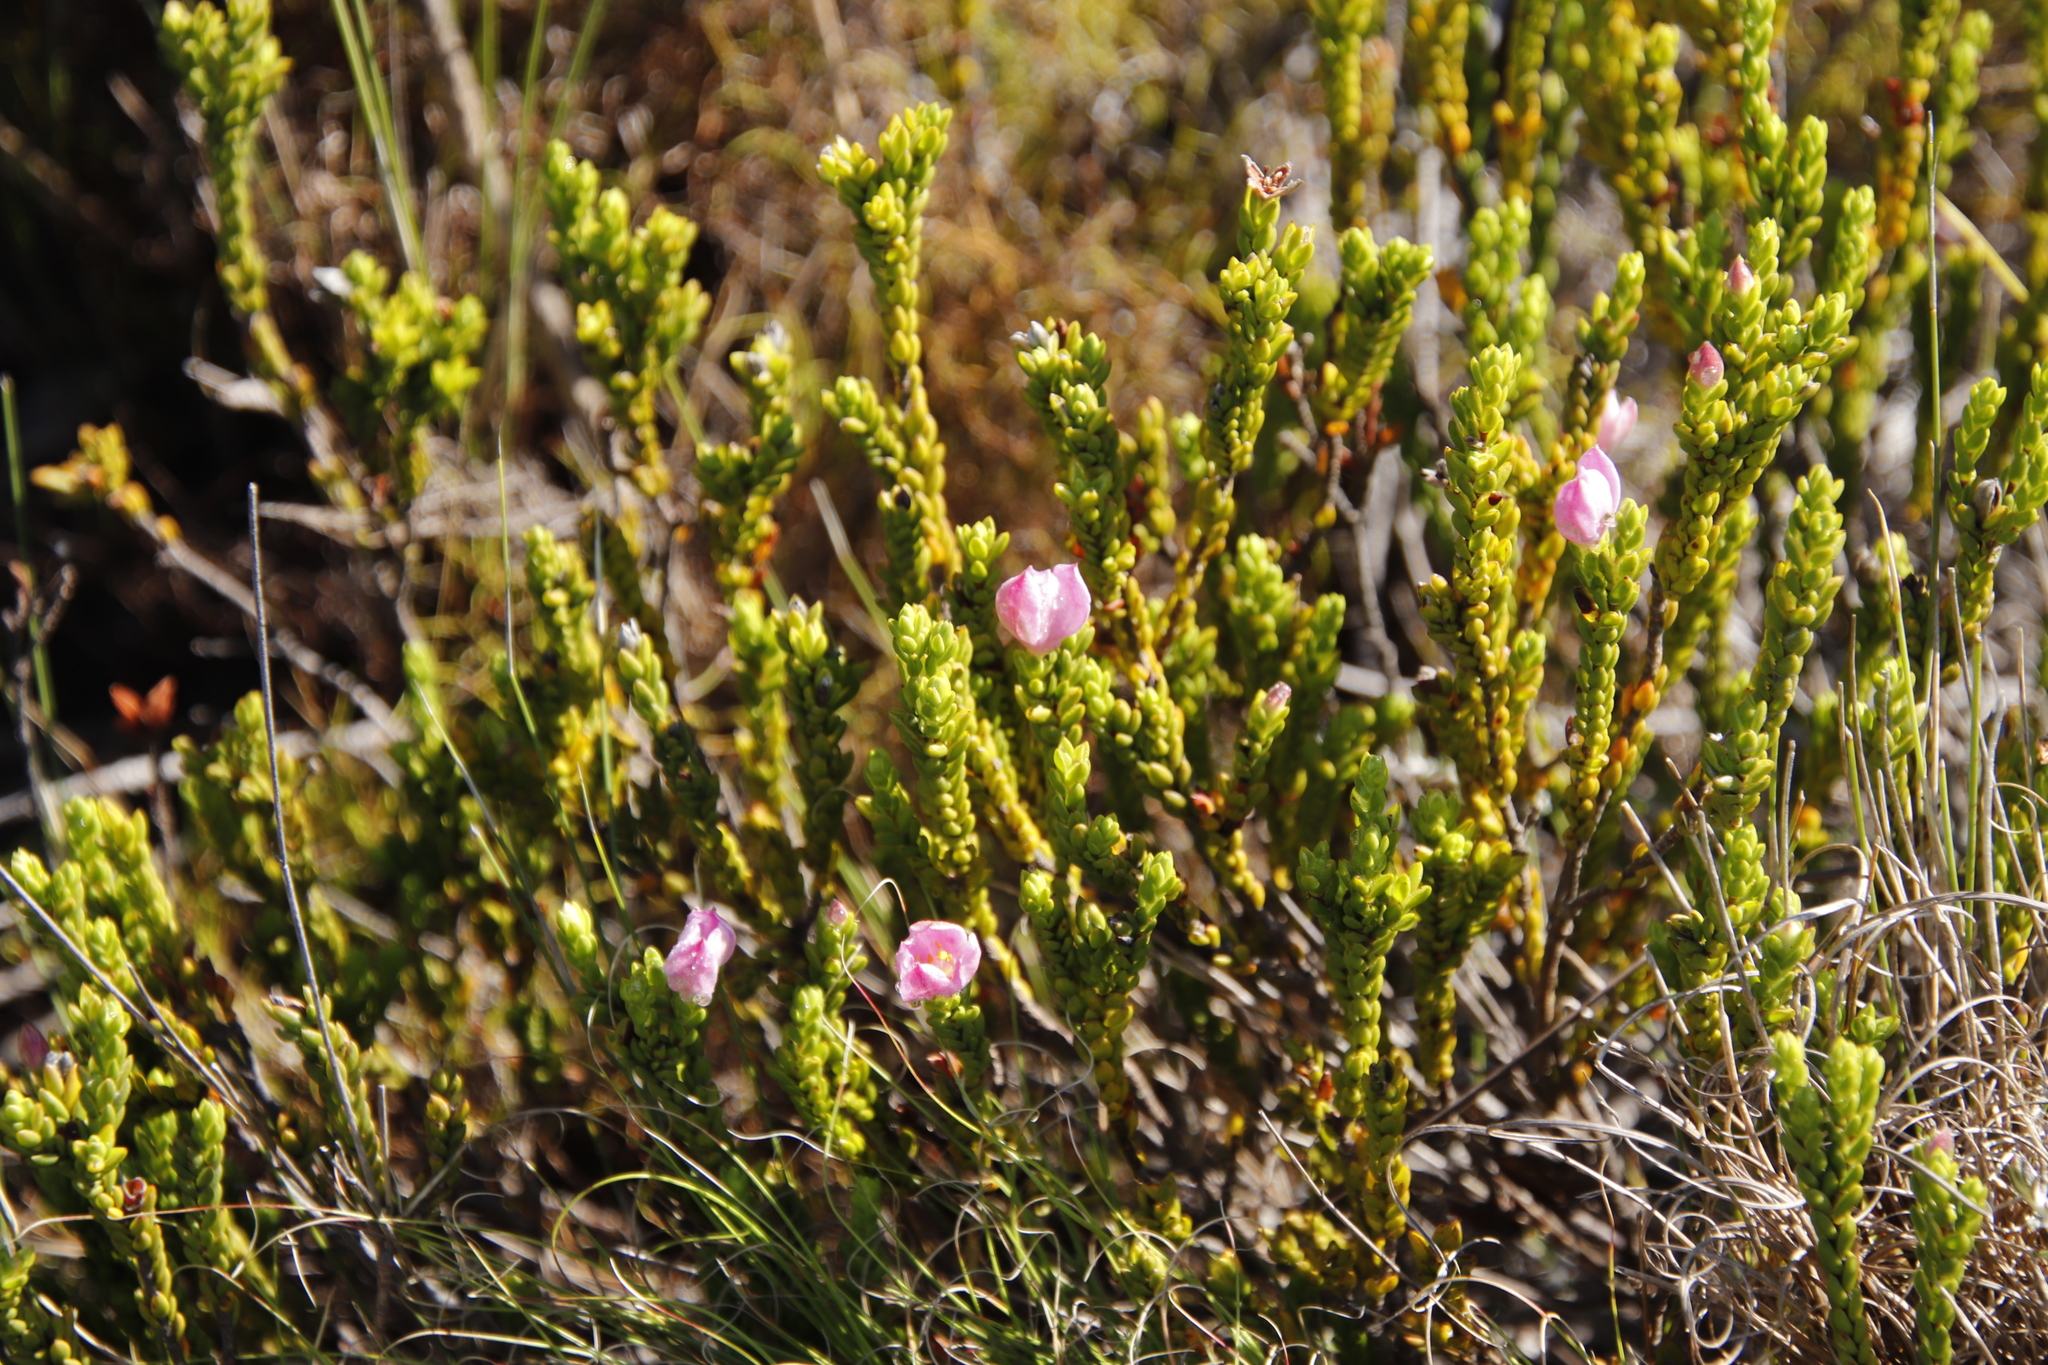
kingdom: Plantae
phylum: Tracheophyta
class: Magnoliopsida
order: Malvales
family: Thymelaeaceae
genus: Lachnaea
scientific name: Lachnaea grandiflora
